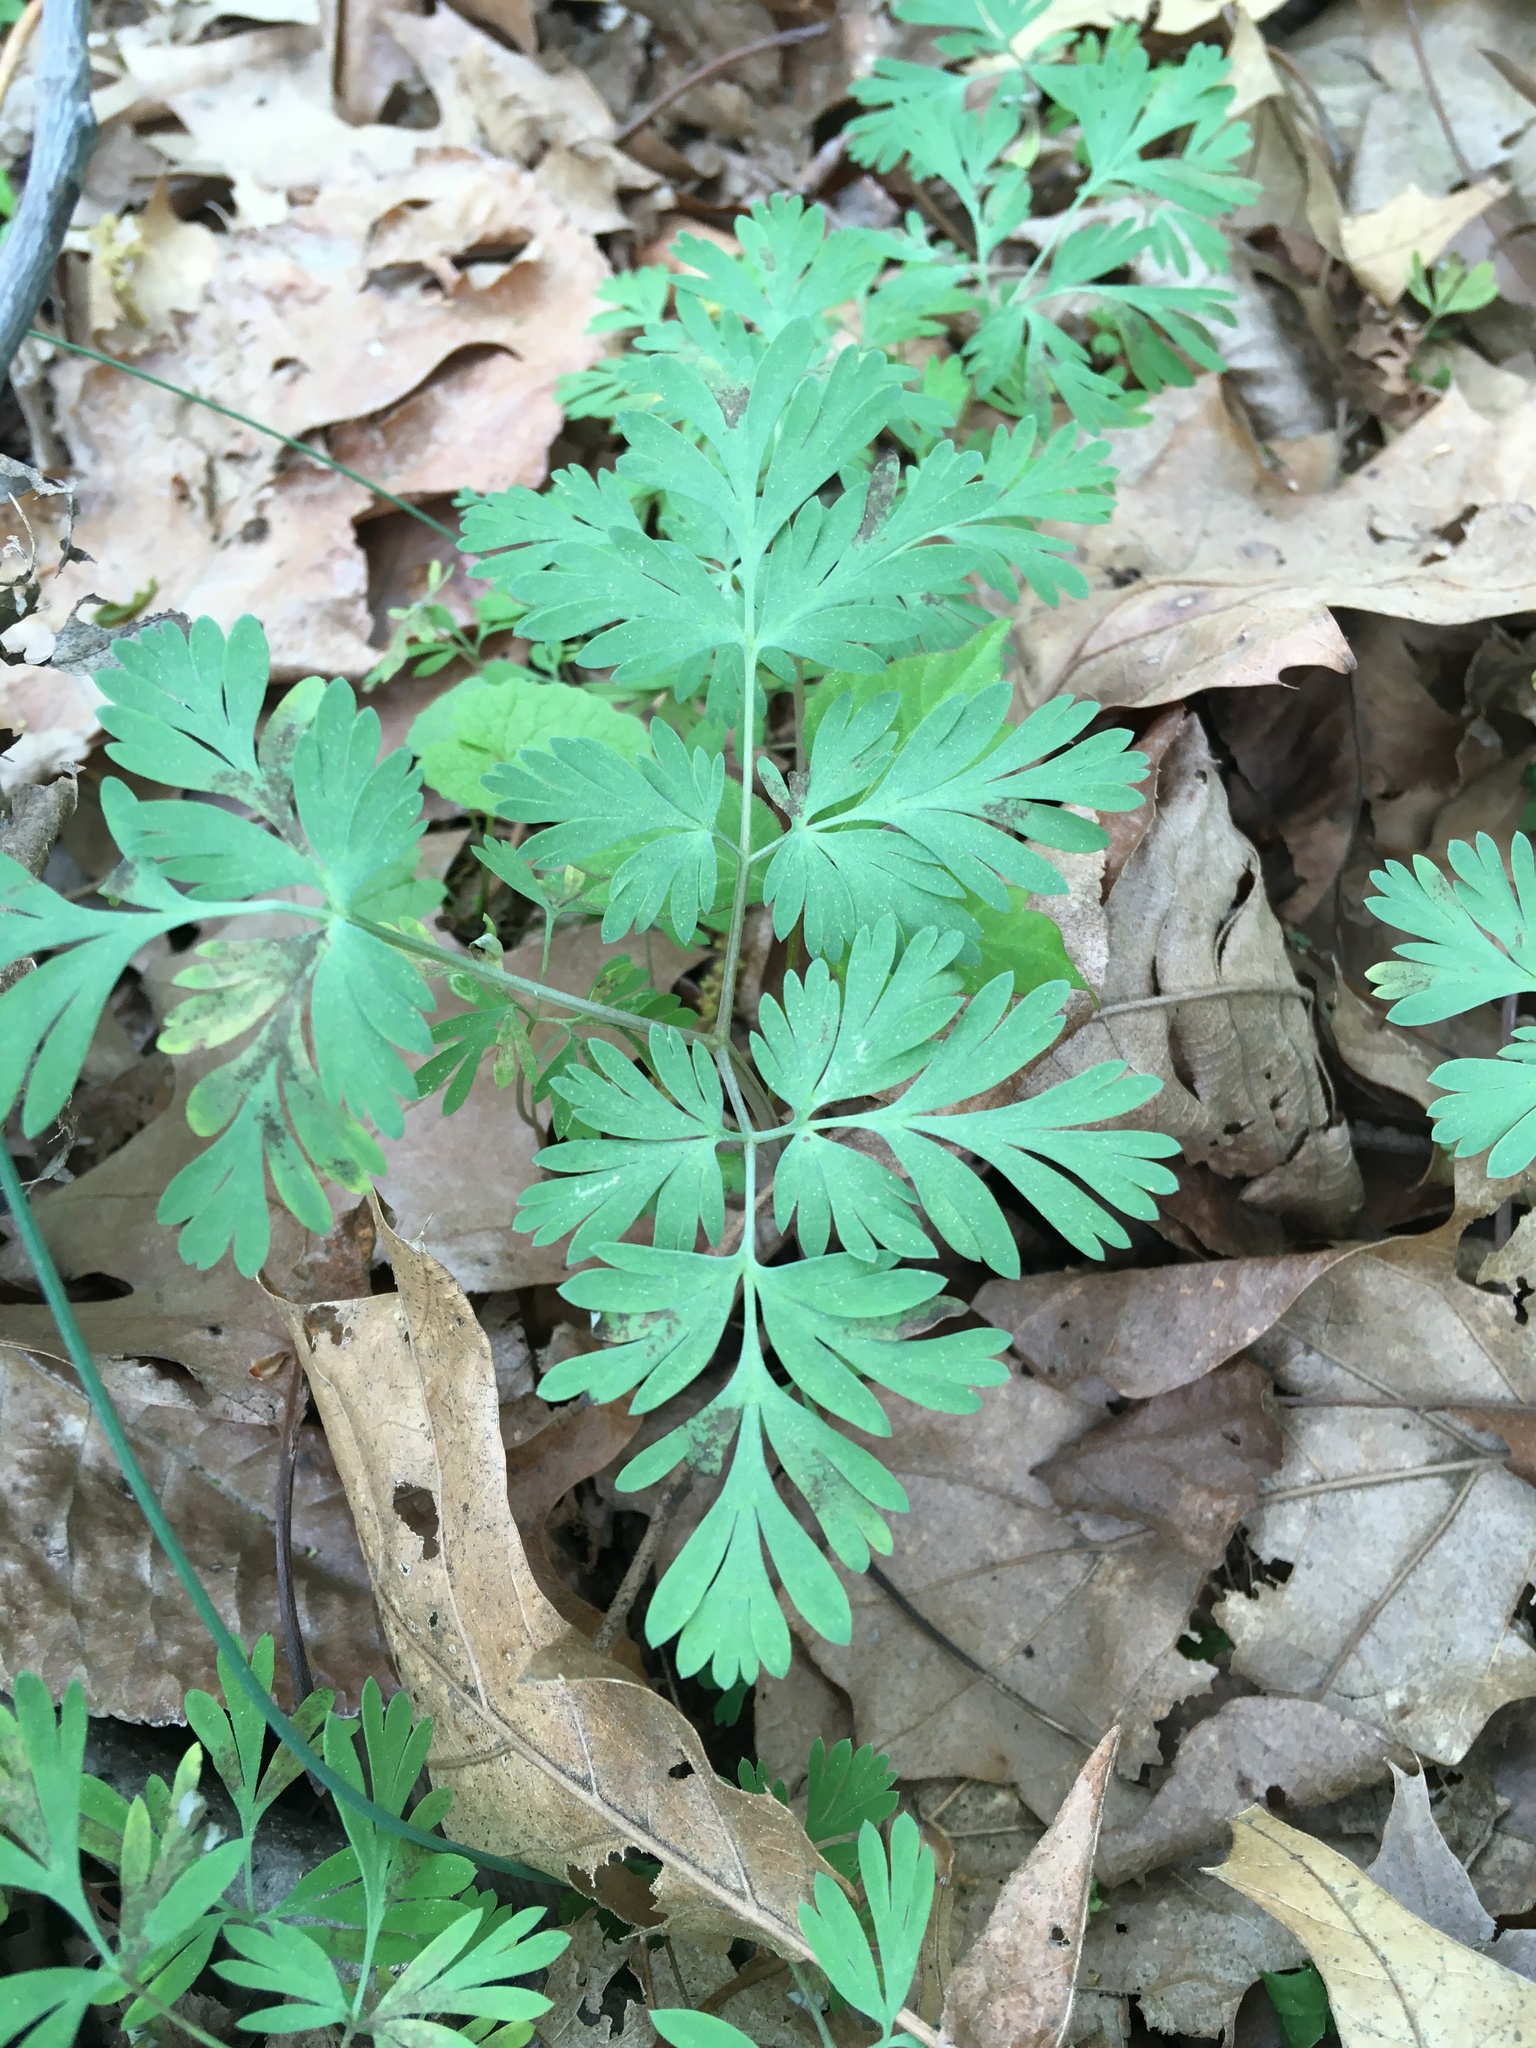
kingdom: Plantae
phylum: Tracheophyta
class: Magnoliopsida
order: Ranunculales
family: Papaveraceae
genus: Dicentra
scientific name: Dicentra cucullaria
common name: Dutchman's breeches
